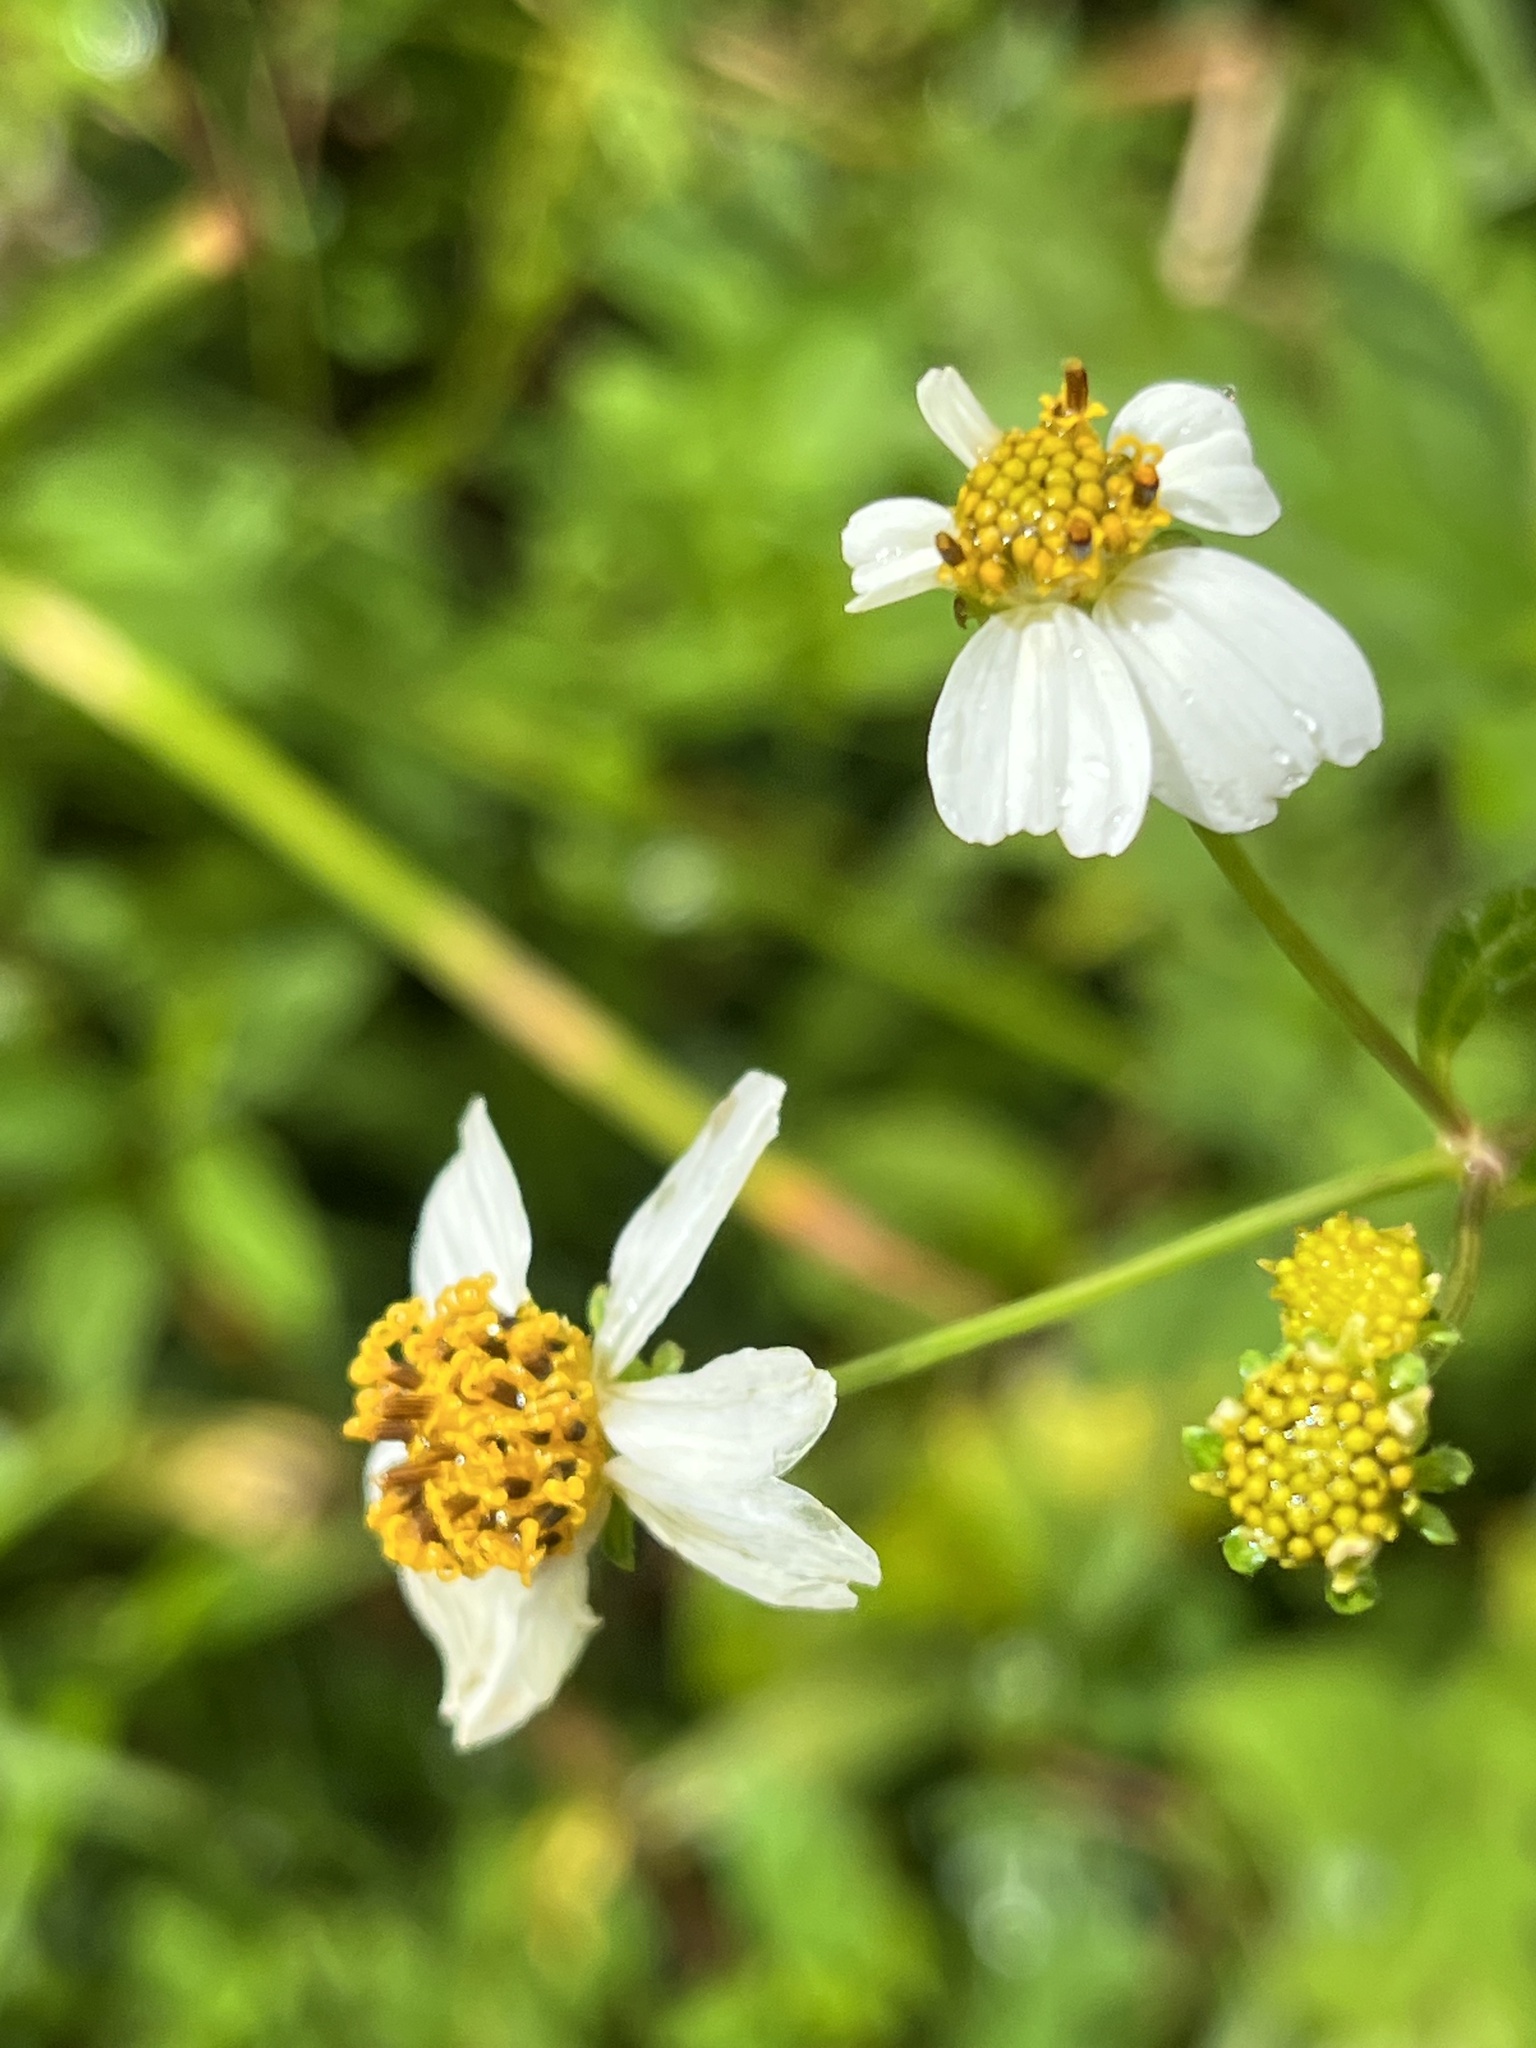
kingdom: Plantae
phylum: Tracheophyta
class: Magnoliopsida
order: Asterales
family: Asteraceae
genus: Bidens
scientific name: Bidens alba
